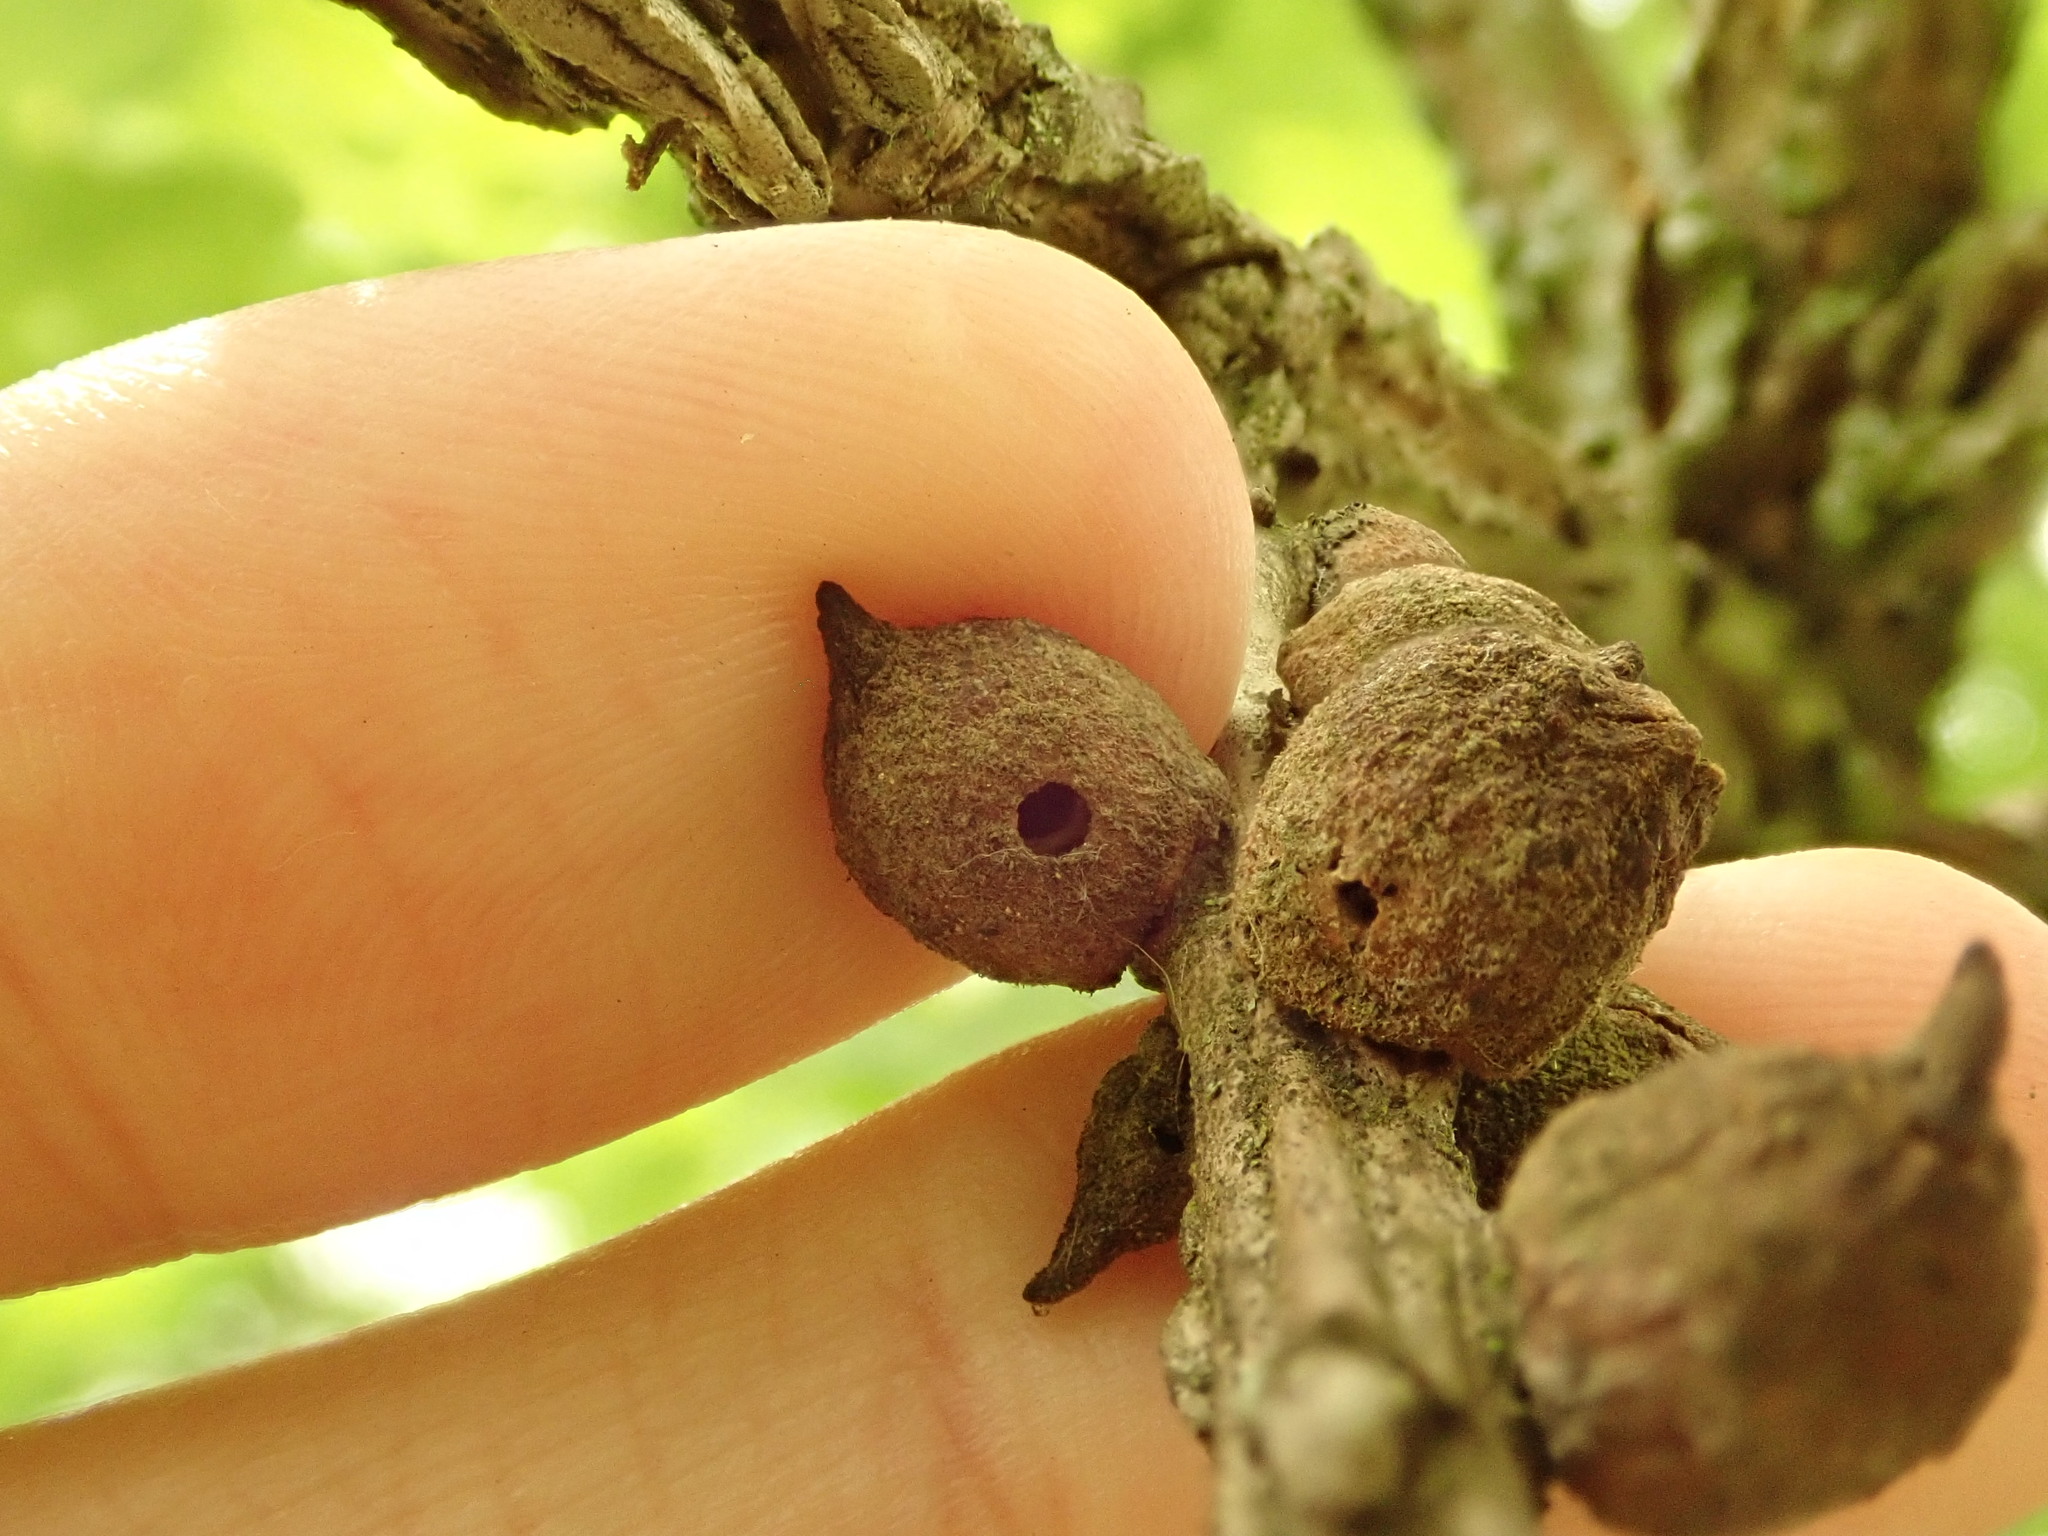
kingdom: Animalia
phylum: Arthropoda
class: Insecta
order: Hymenoptera
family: Cynipidae
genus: Disholcaspis
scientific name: Disholcaspis
